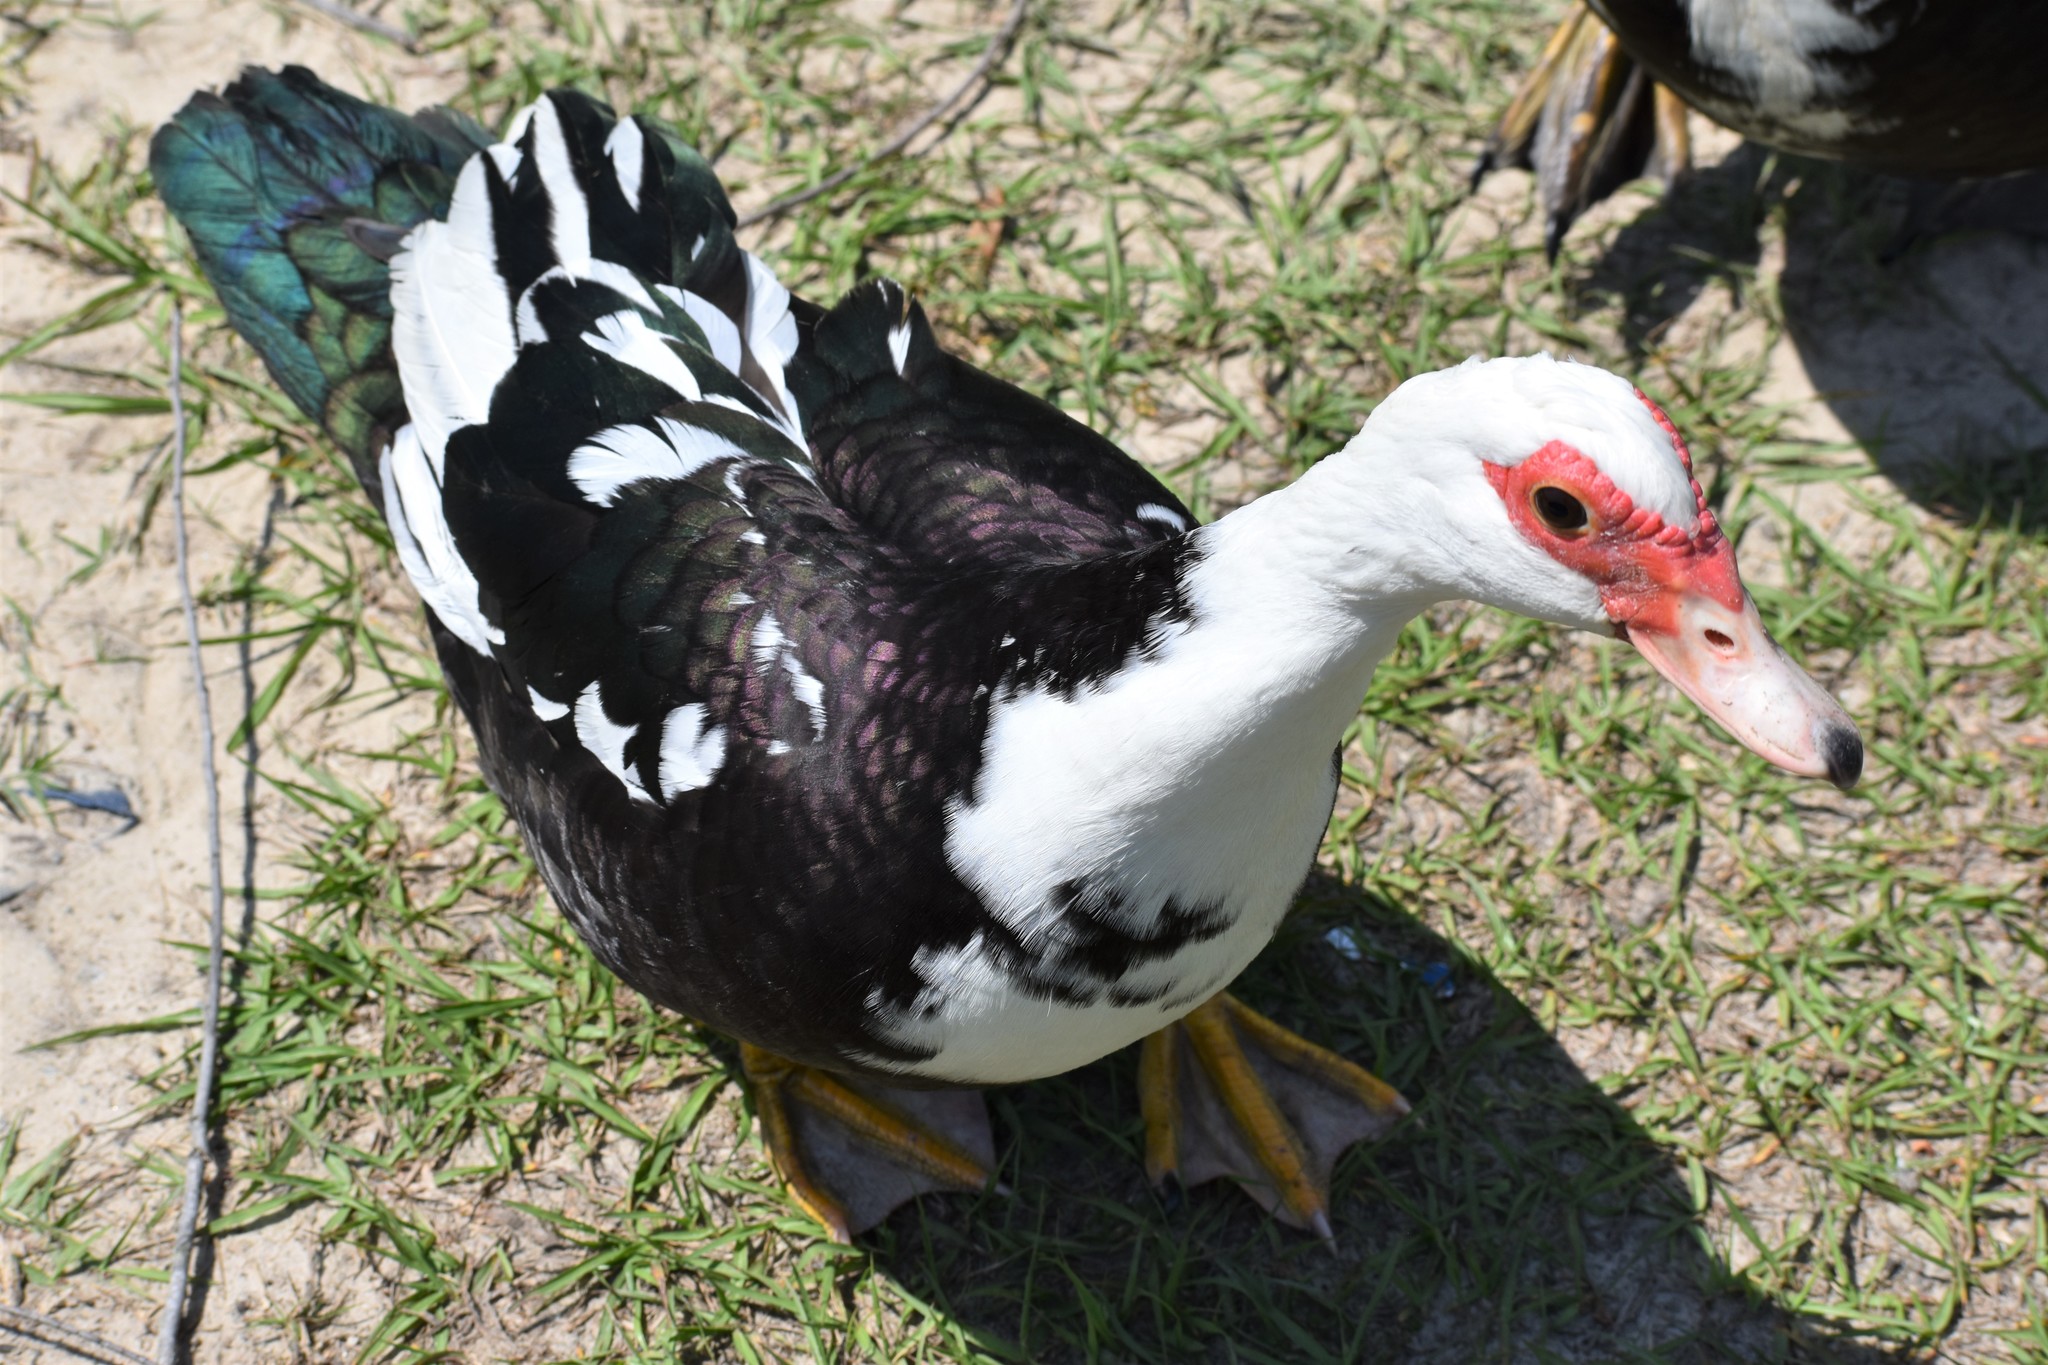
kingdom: Animalia
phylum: Chordata
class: Aves
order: Anseriformes
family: Anatidae
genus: Cairina
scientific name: Cairina moschata
